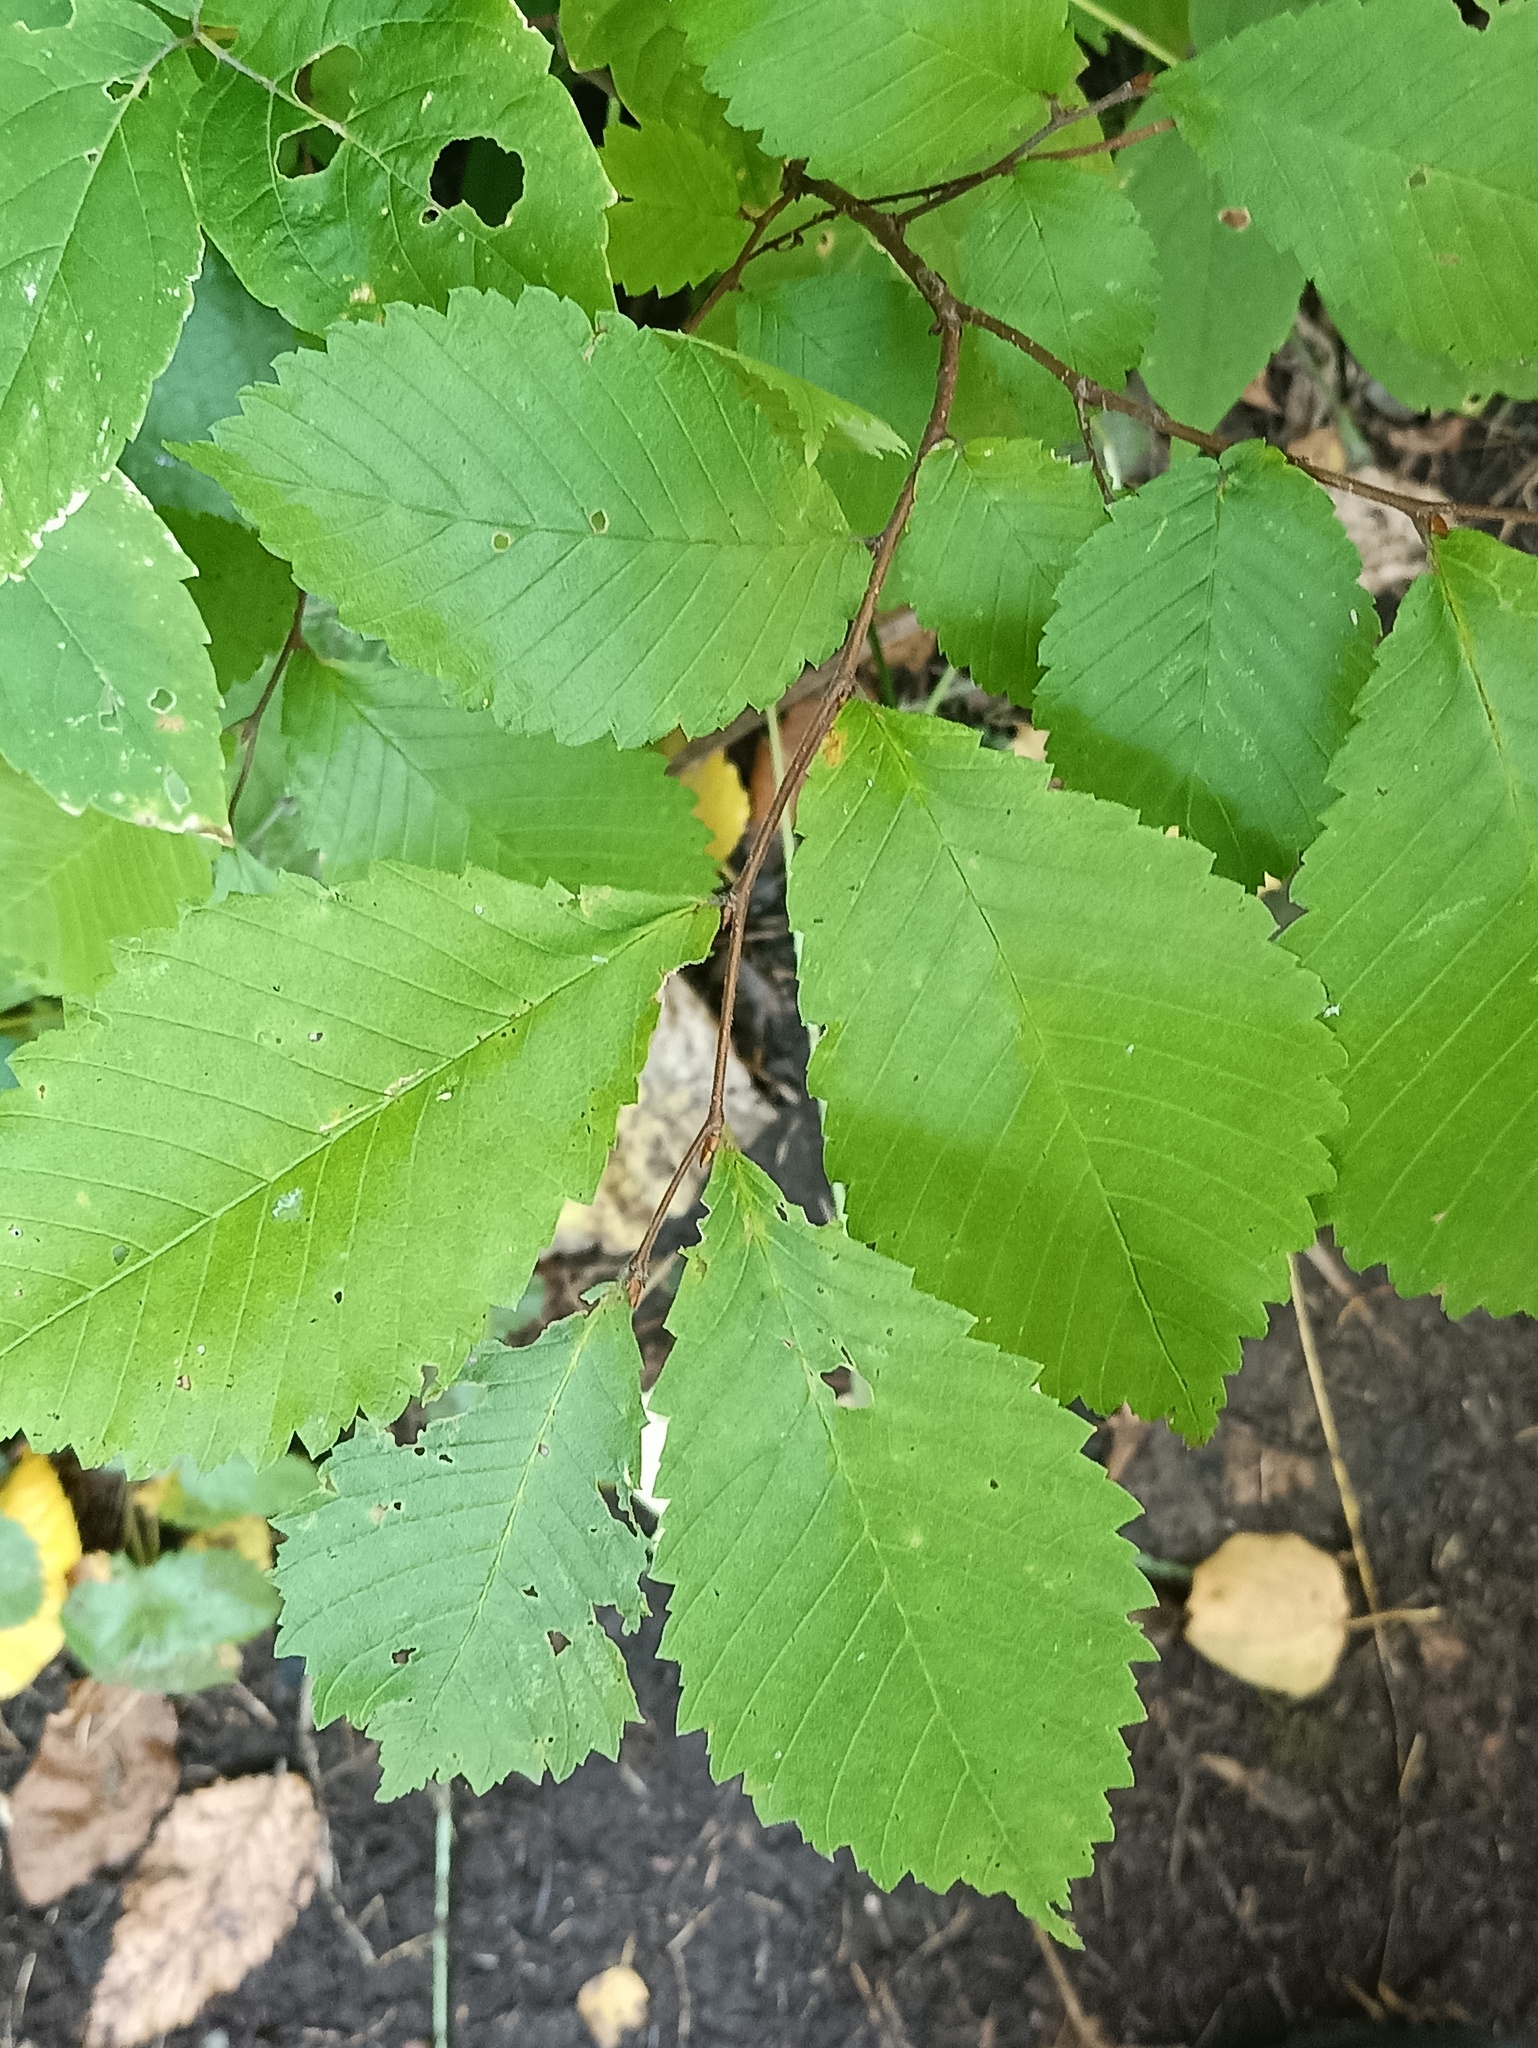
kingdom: Plantae
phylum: Tracheophyta
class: Magnoliopsida
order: Rosales
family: Ulmaceae
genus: Ulmus
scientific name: Ulmus laevis
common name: European white-elm
